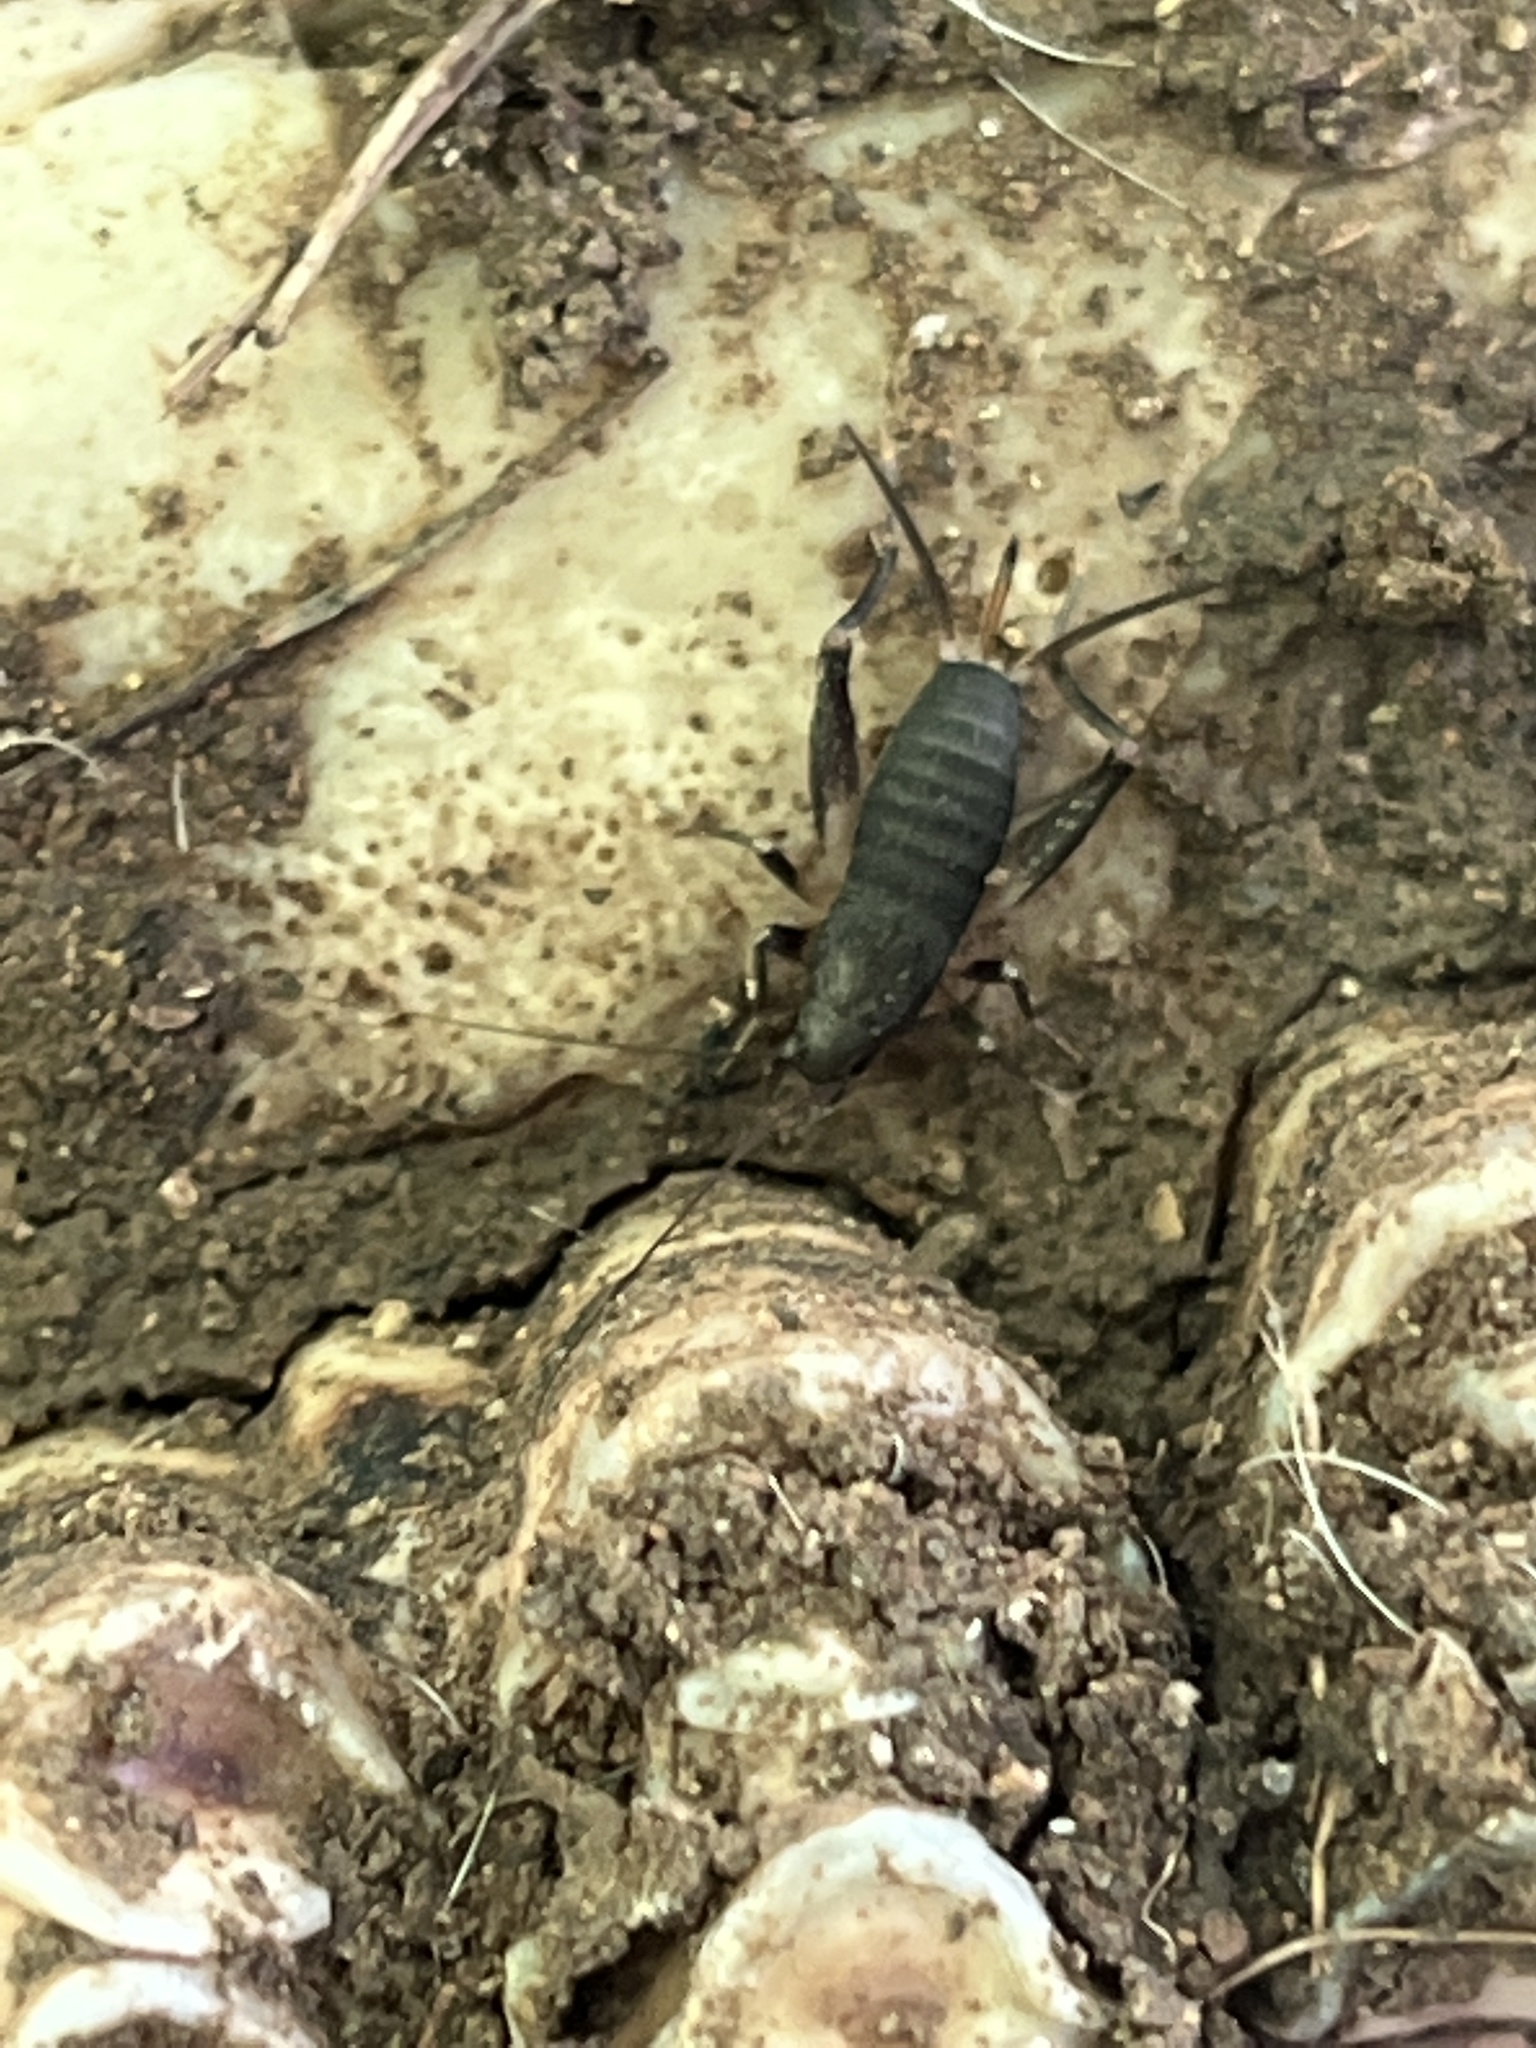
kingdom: Animalia
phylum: Arthropoda
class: Insecta
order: Orthoptera
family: Mogoplistidae
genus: Cycloptiloides
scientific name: Cycloptiloides americanus
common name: Saussure’s scaly cricket
